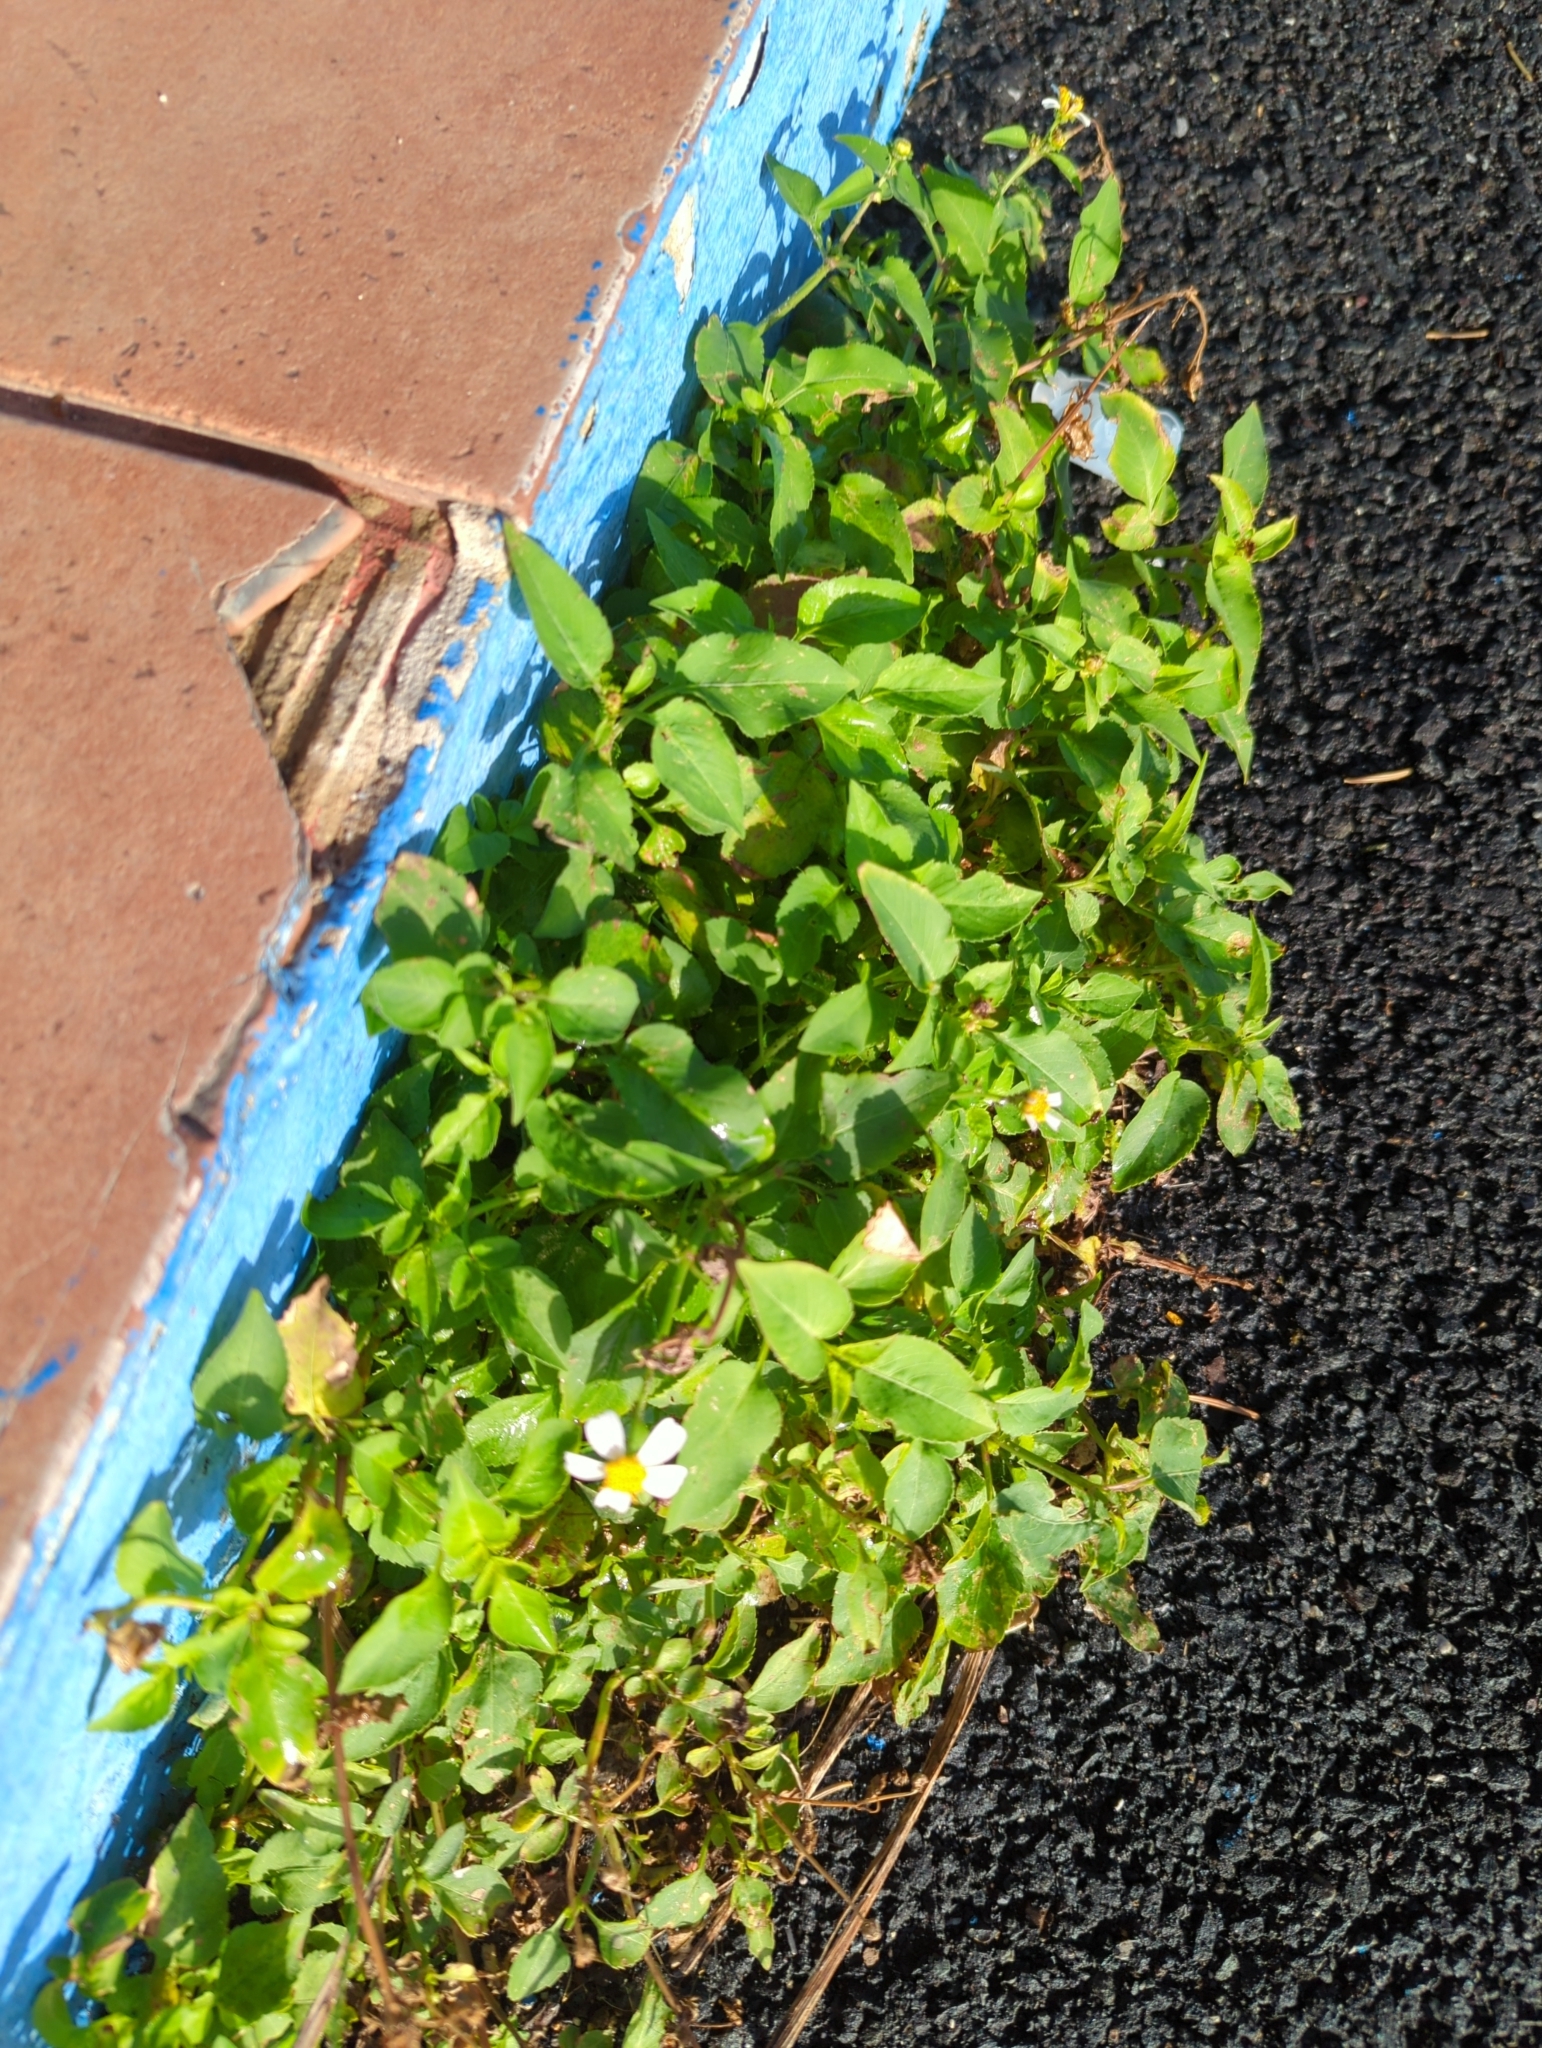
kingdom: Plantae
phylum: Tracheophyta
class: Magnoliopsida
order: Asterales
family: Asteraceae
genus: Bidens
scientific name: Bidens alba
